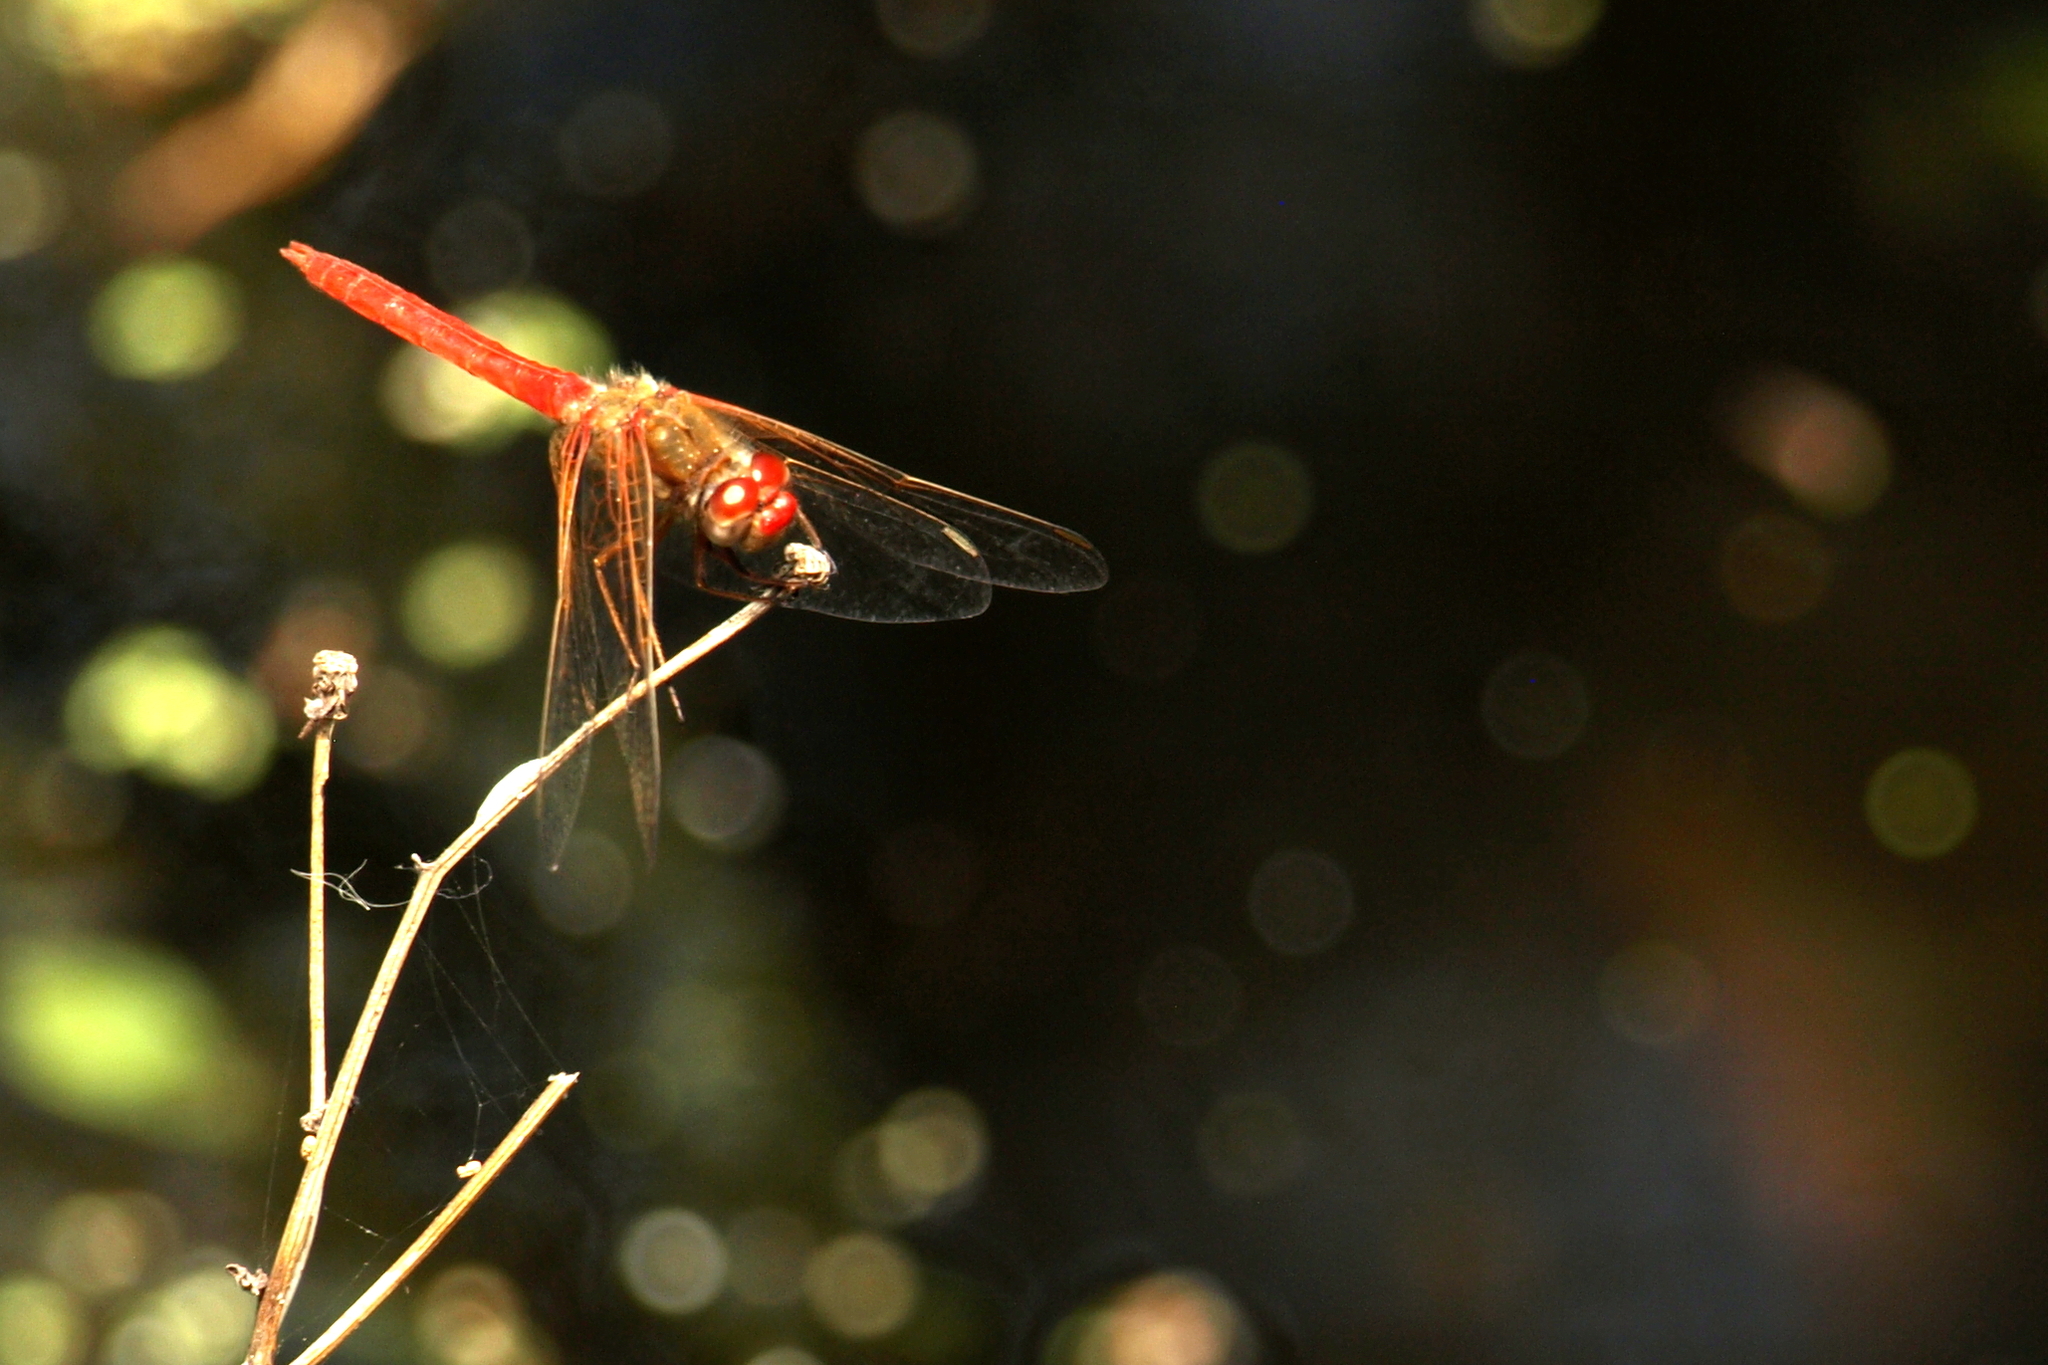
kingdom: Animalia
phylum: Arthropoda
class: Insecta
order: Odonata
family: Libellulidae
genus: Sympetrum
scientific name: Sympetrum illotum
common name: Cardinal meadowhawk
